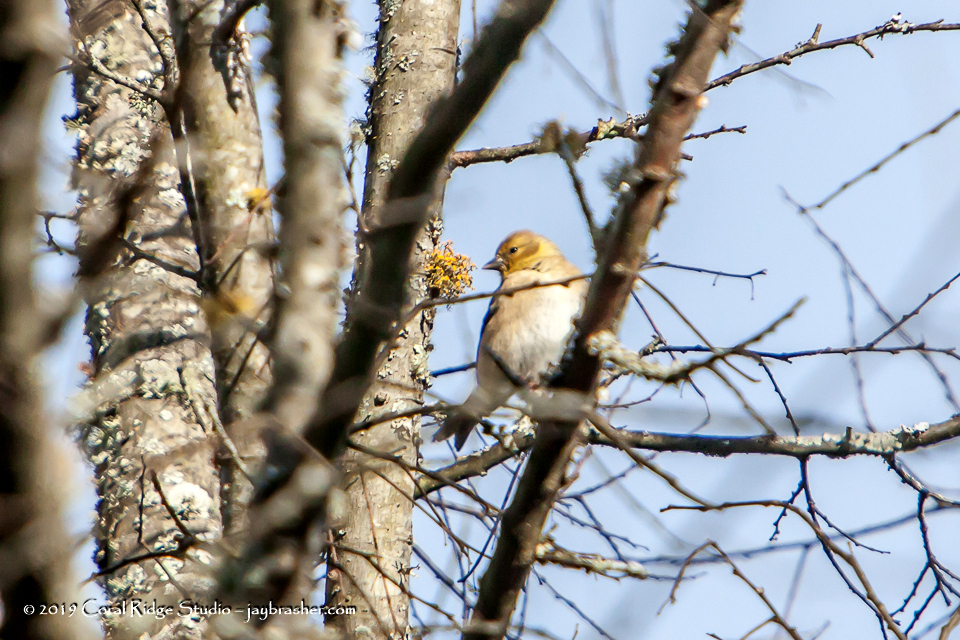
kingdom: Animalia
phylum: Chordata
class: Aves
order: Passeriformes
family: Fringillidae
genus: Spinus
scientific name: Spinus tristis
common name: American goldfinch
